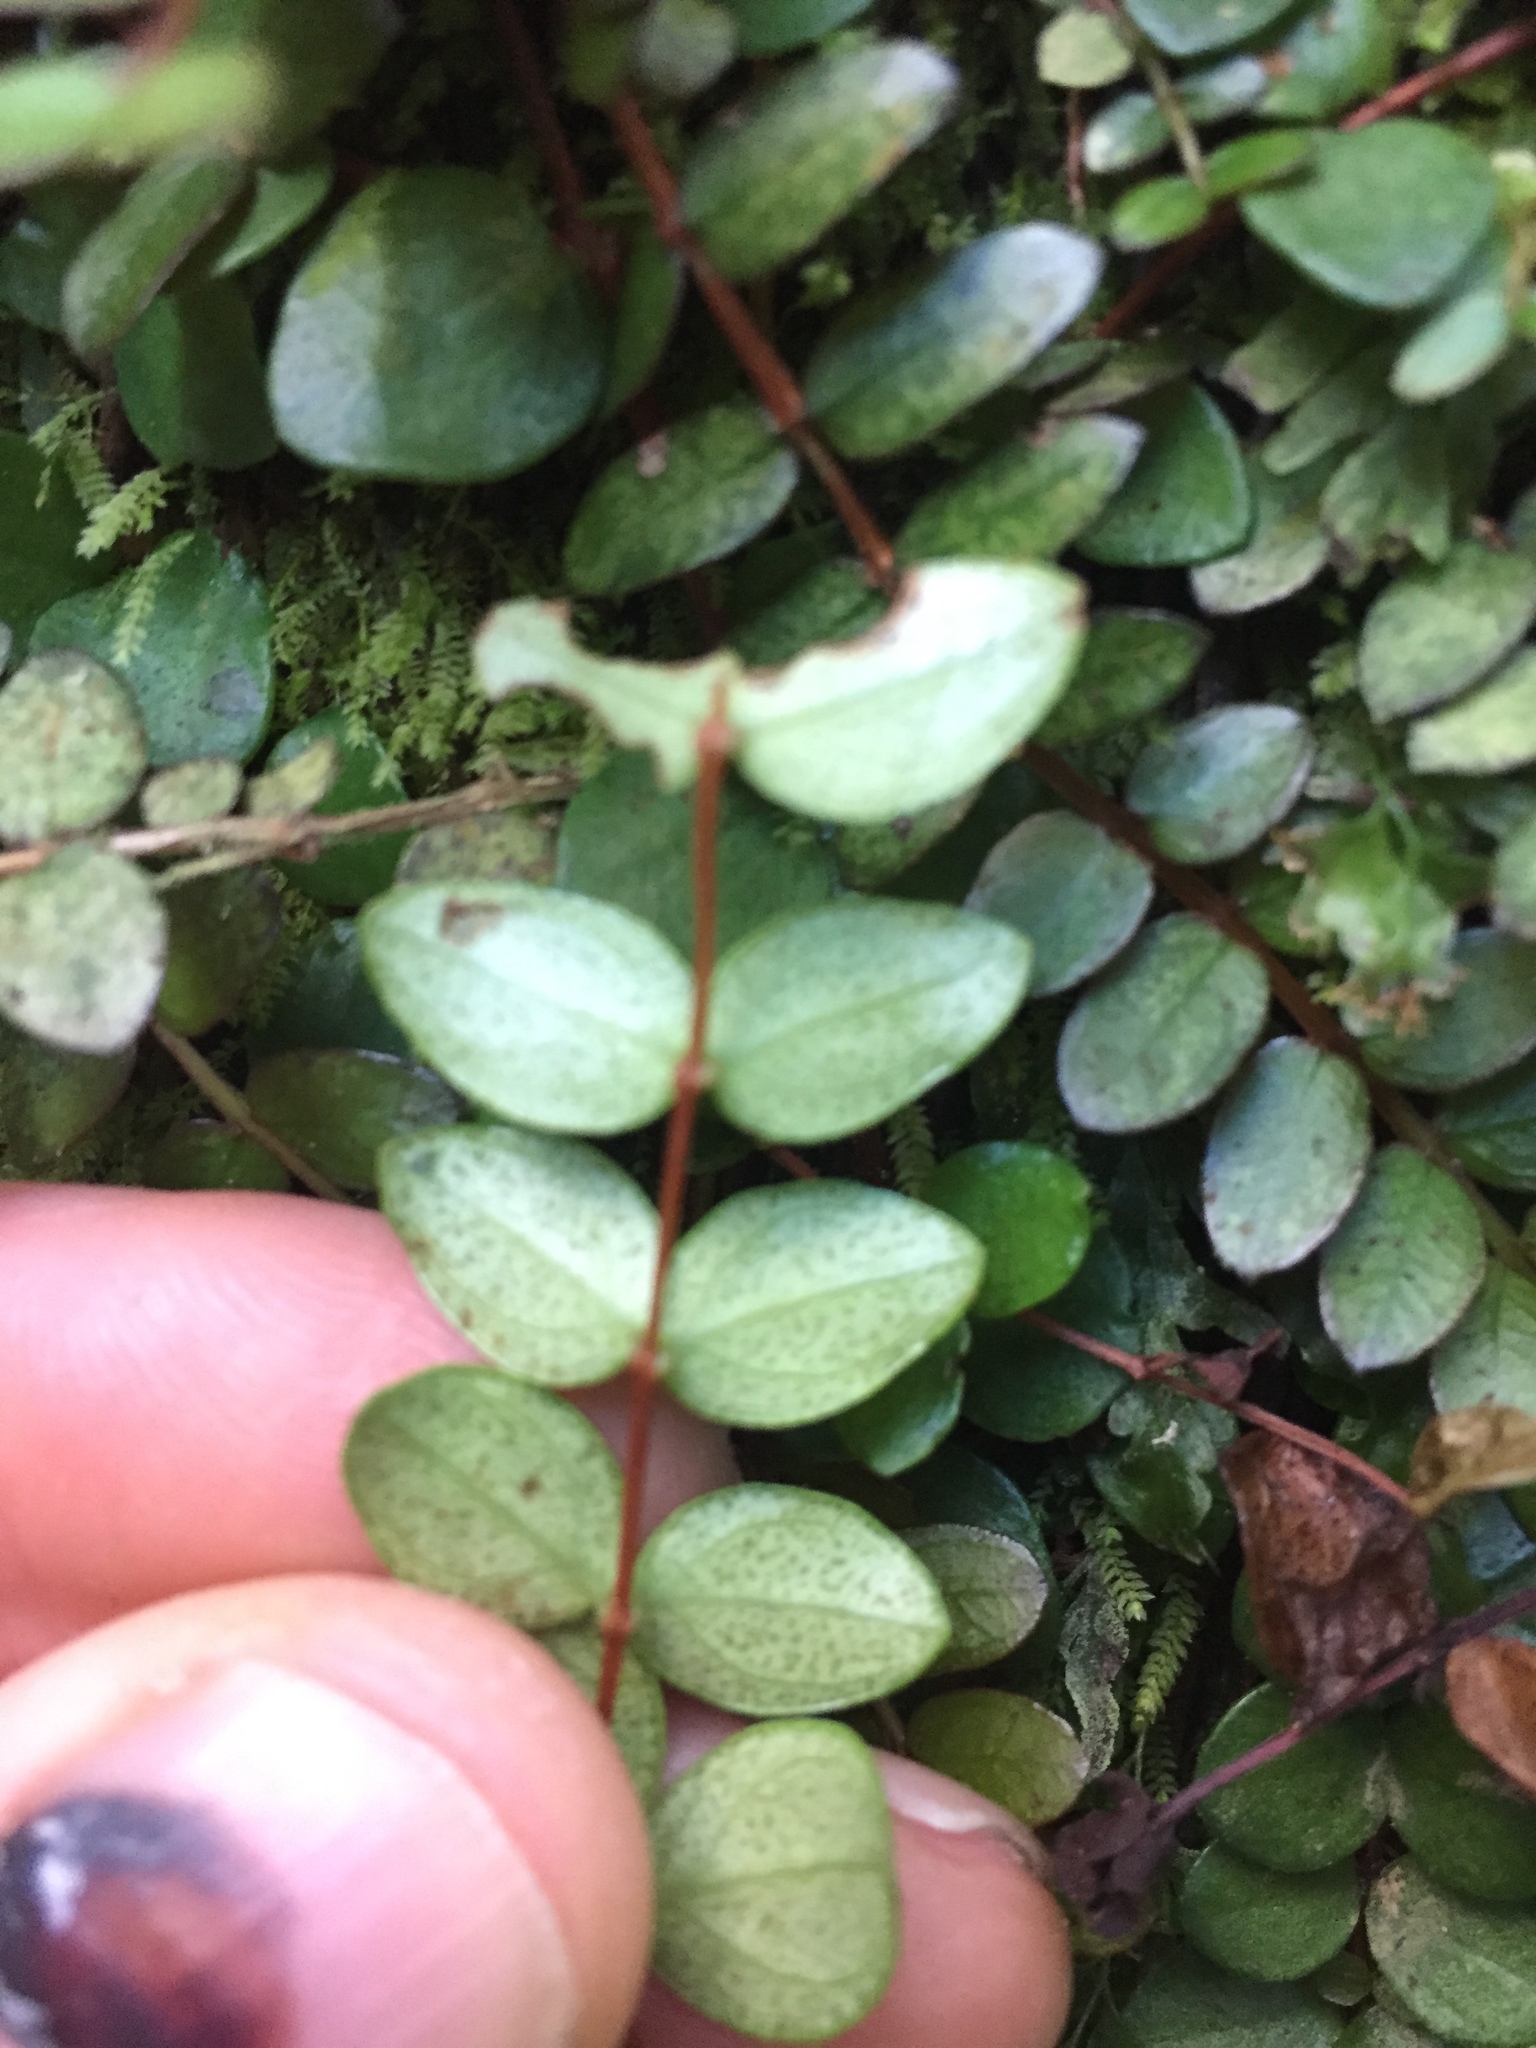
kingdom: Plantae
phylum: Tracheophyta
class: Magnoliopsida
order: Myrtales
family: Myrtaceae
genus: Metrosideros
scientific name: Metrosideros perforata
